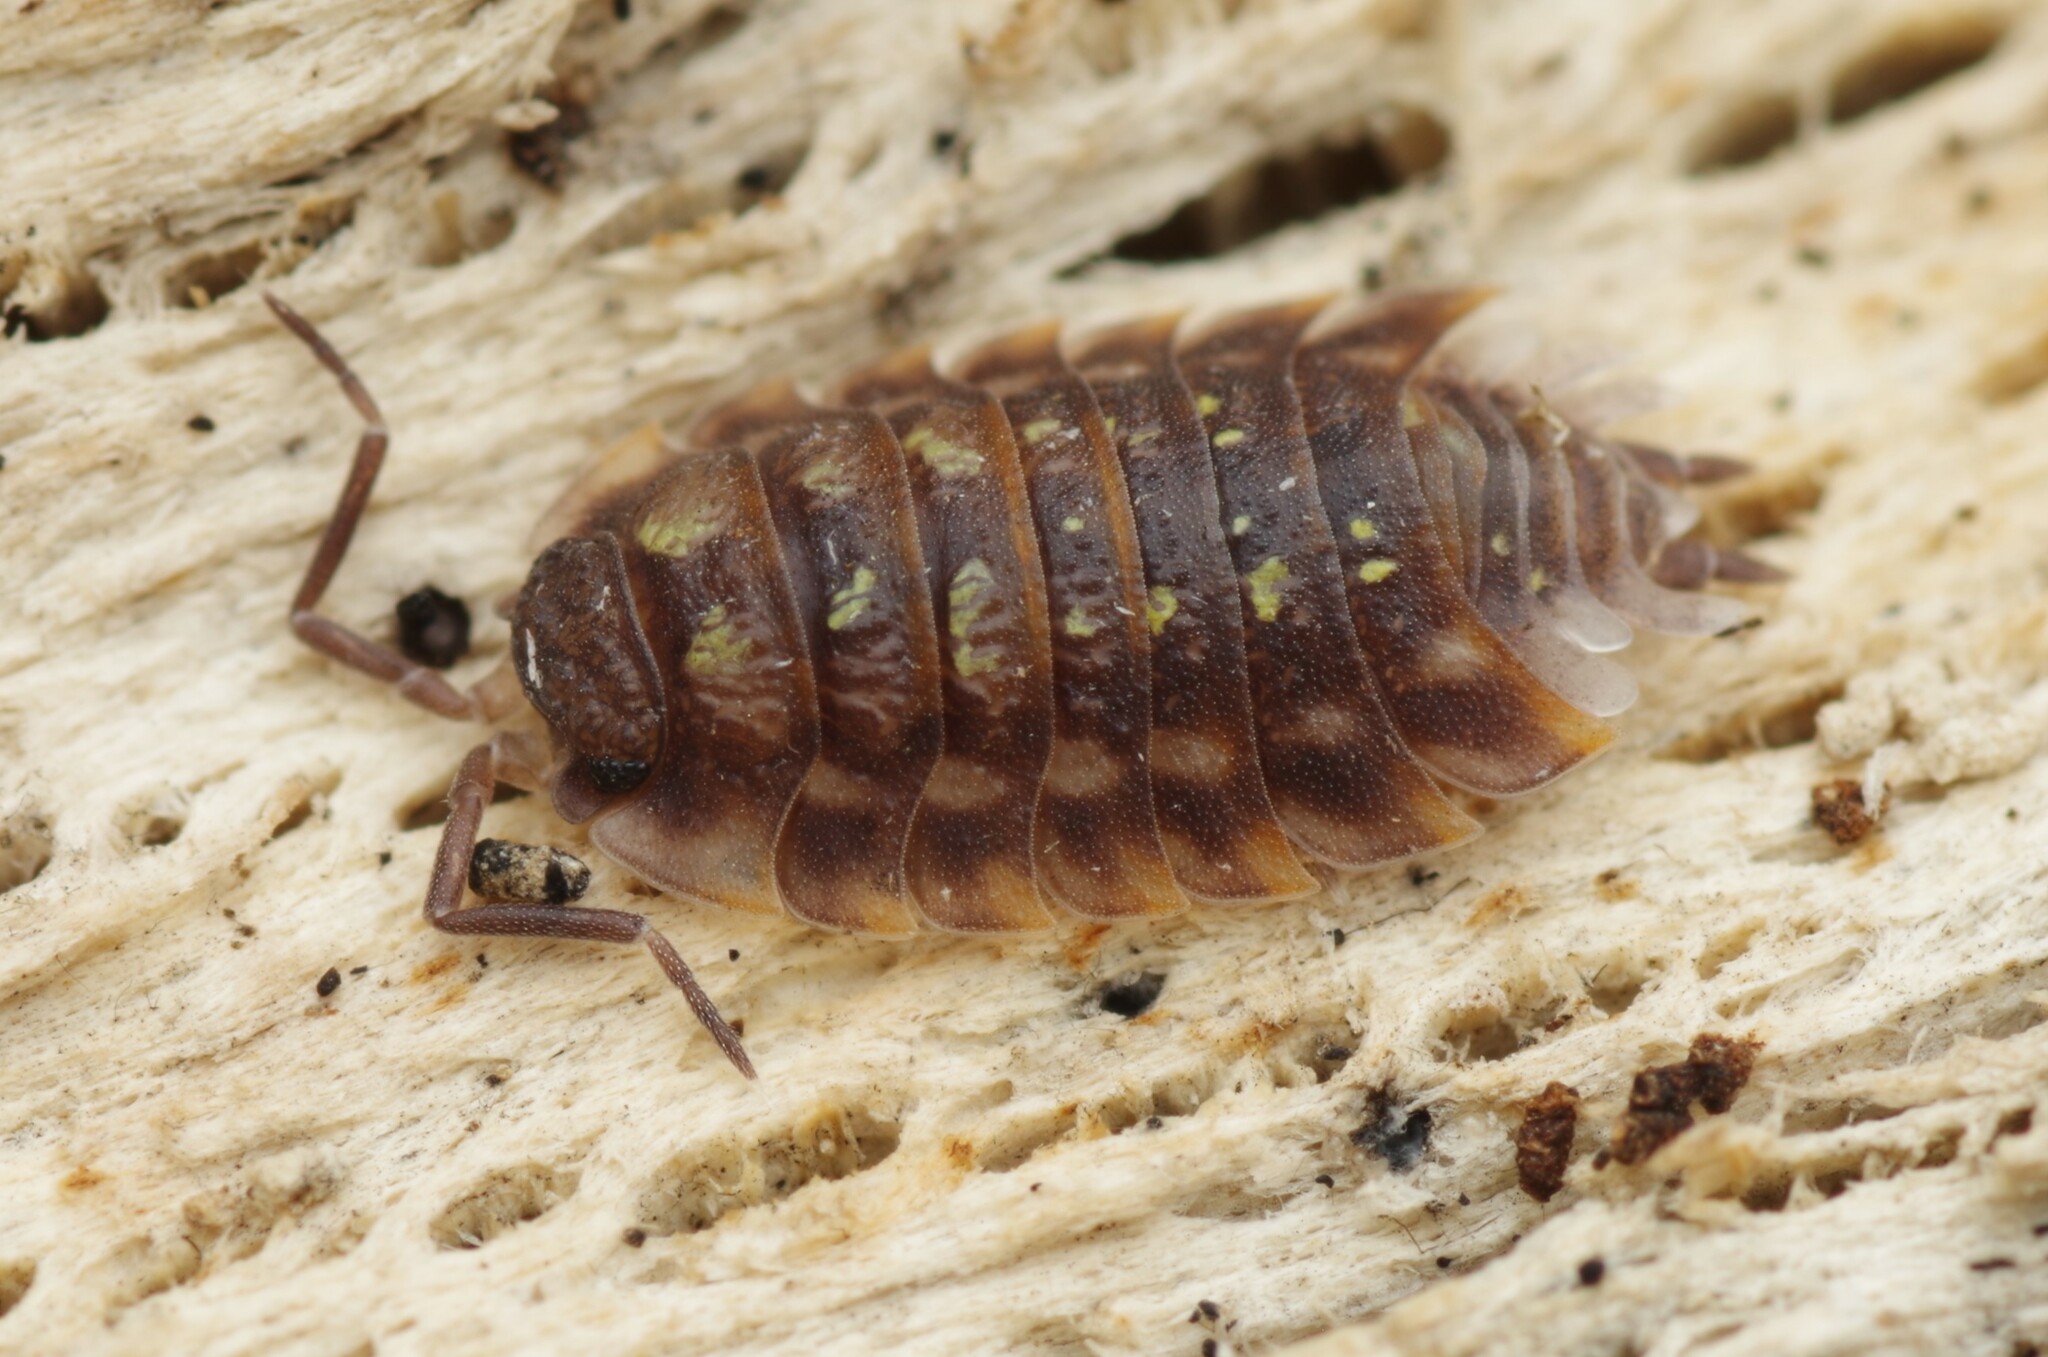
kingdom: Animalia
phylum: Arthropoda
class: Malacostraca
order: Isopoda
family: Oniscidae
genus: Oniscus
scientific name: Oniscus asellus
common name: Common shiny woodlouse
